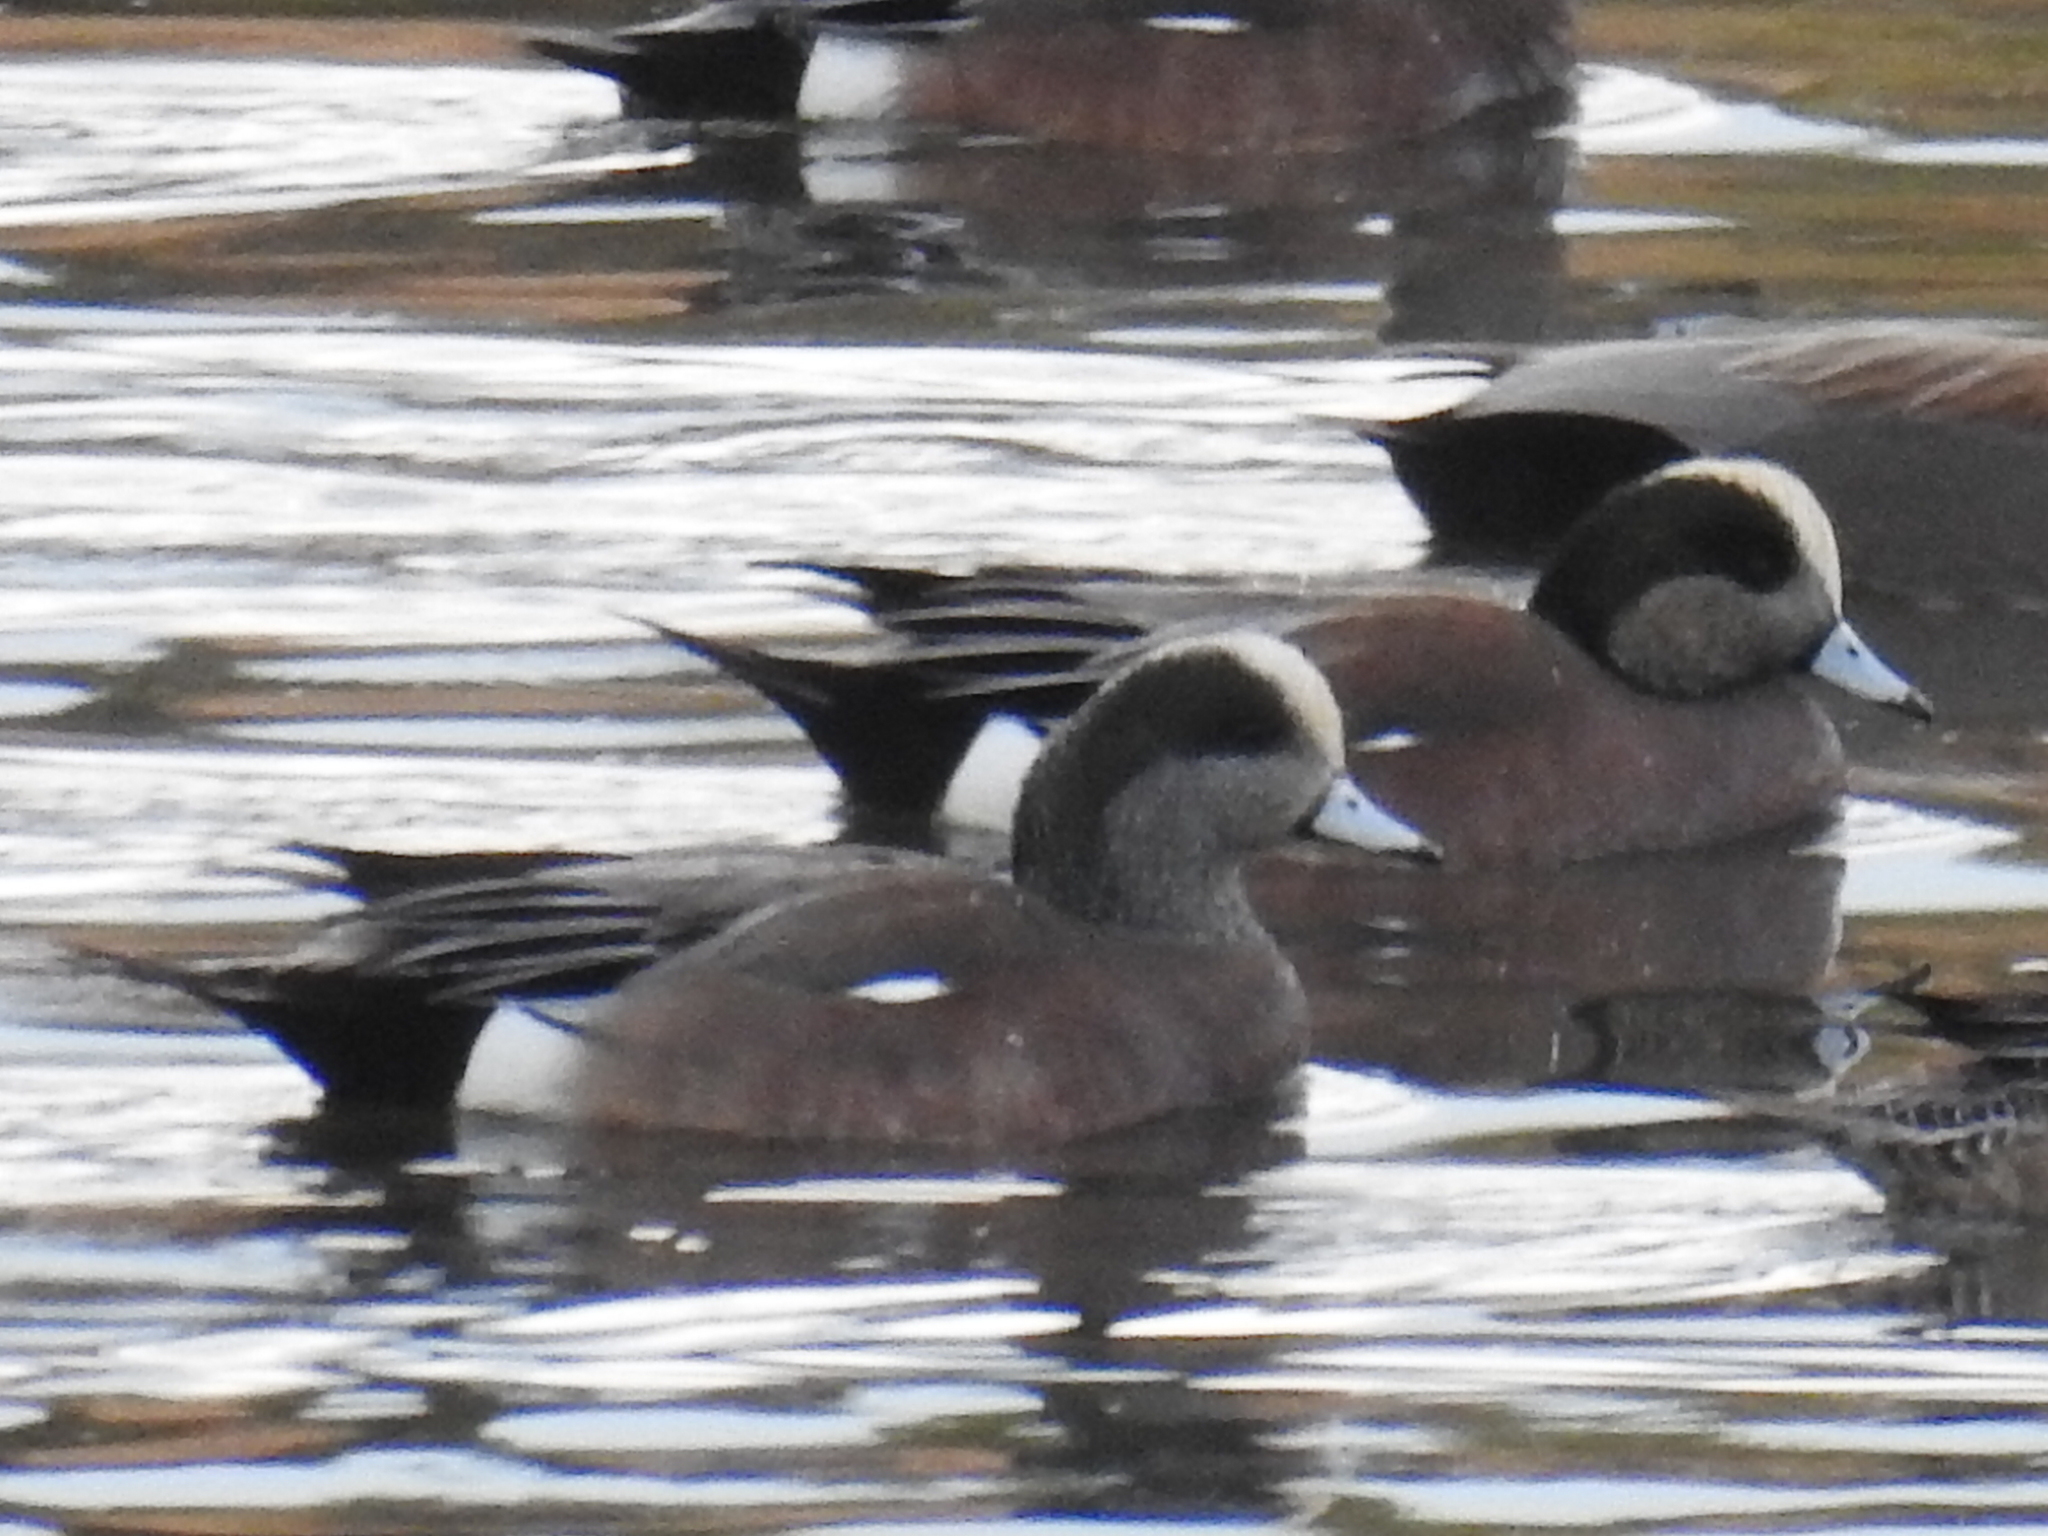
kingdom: Animalia
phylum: Chordata
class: Aves
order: Anseriformes
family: Anatidae
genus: Mareca
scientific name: Mareca americana
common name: American wigeon
